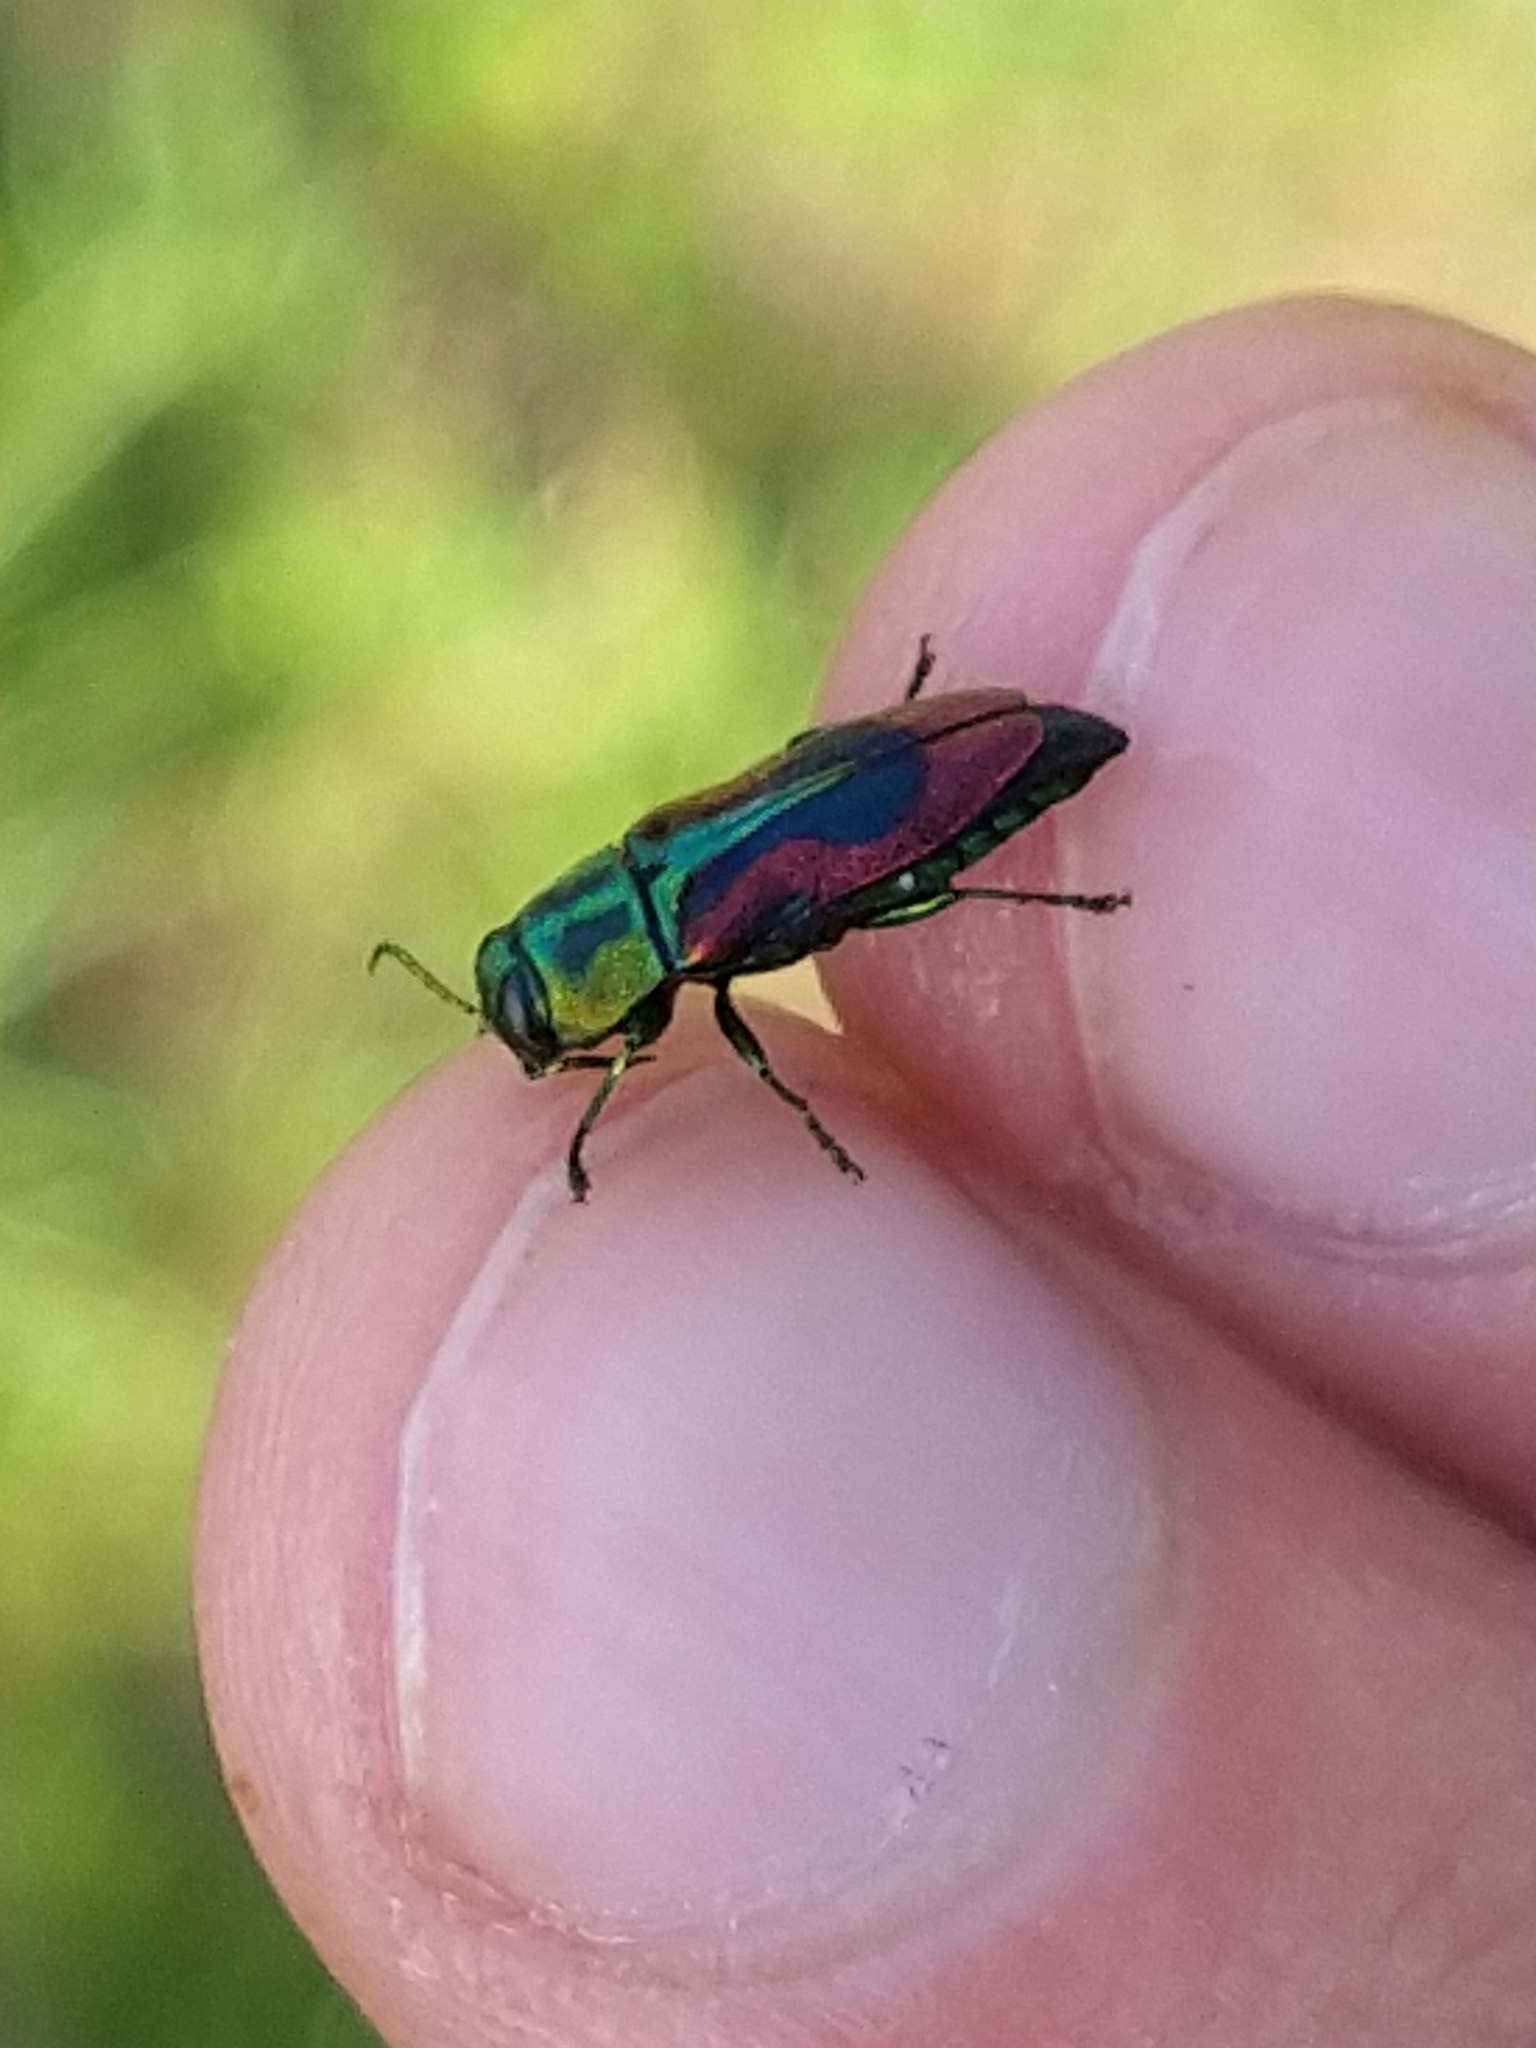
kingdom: Animalia
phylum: Arthropoda
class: Insecta
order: Coleoptera
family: Buprestidae
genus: Anthaxia
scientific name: Anthaxia candens
